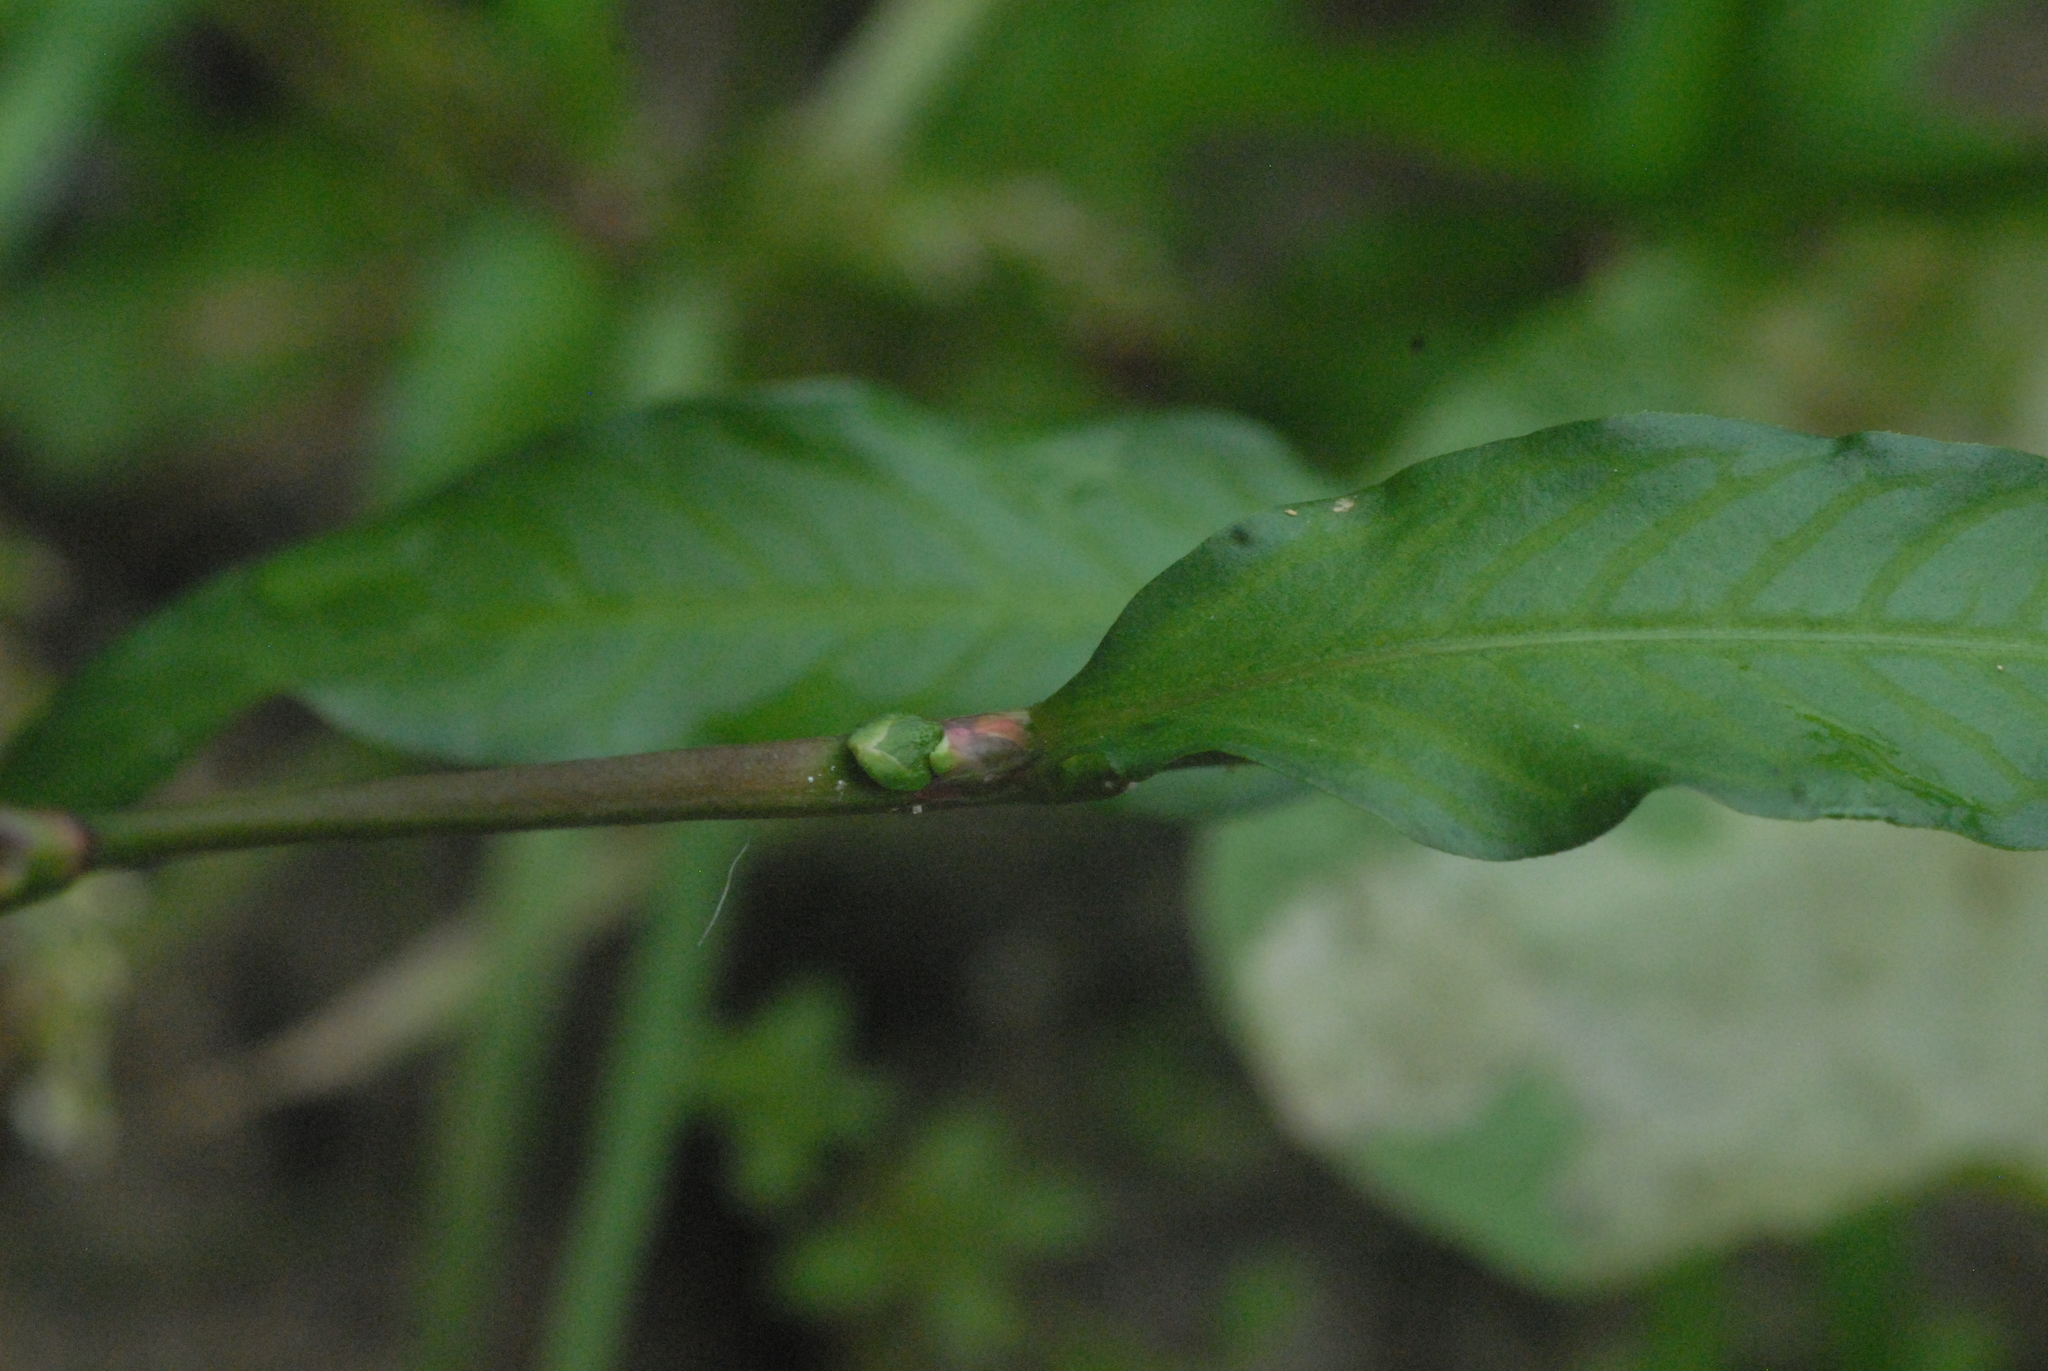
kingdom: Plantae
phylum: Tracheophyta
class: Magnoliopsida
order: Caryophyllales
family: Polygonaceae
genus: Persicaria
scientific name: Persicaria hydropiper
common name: Water-pepper
